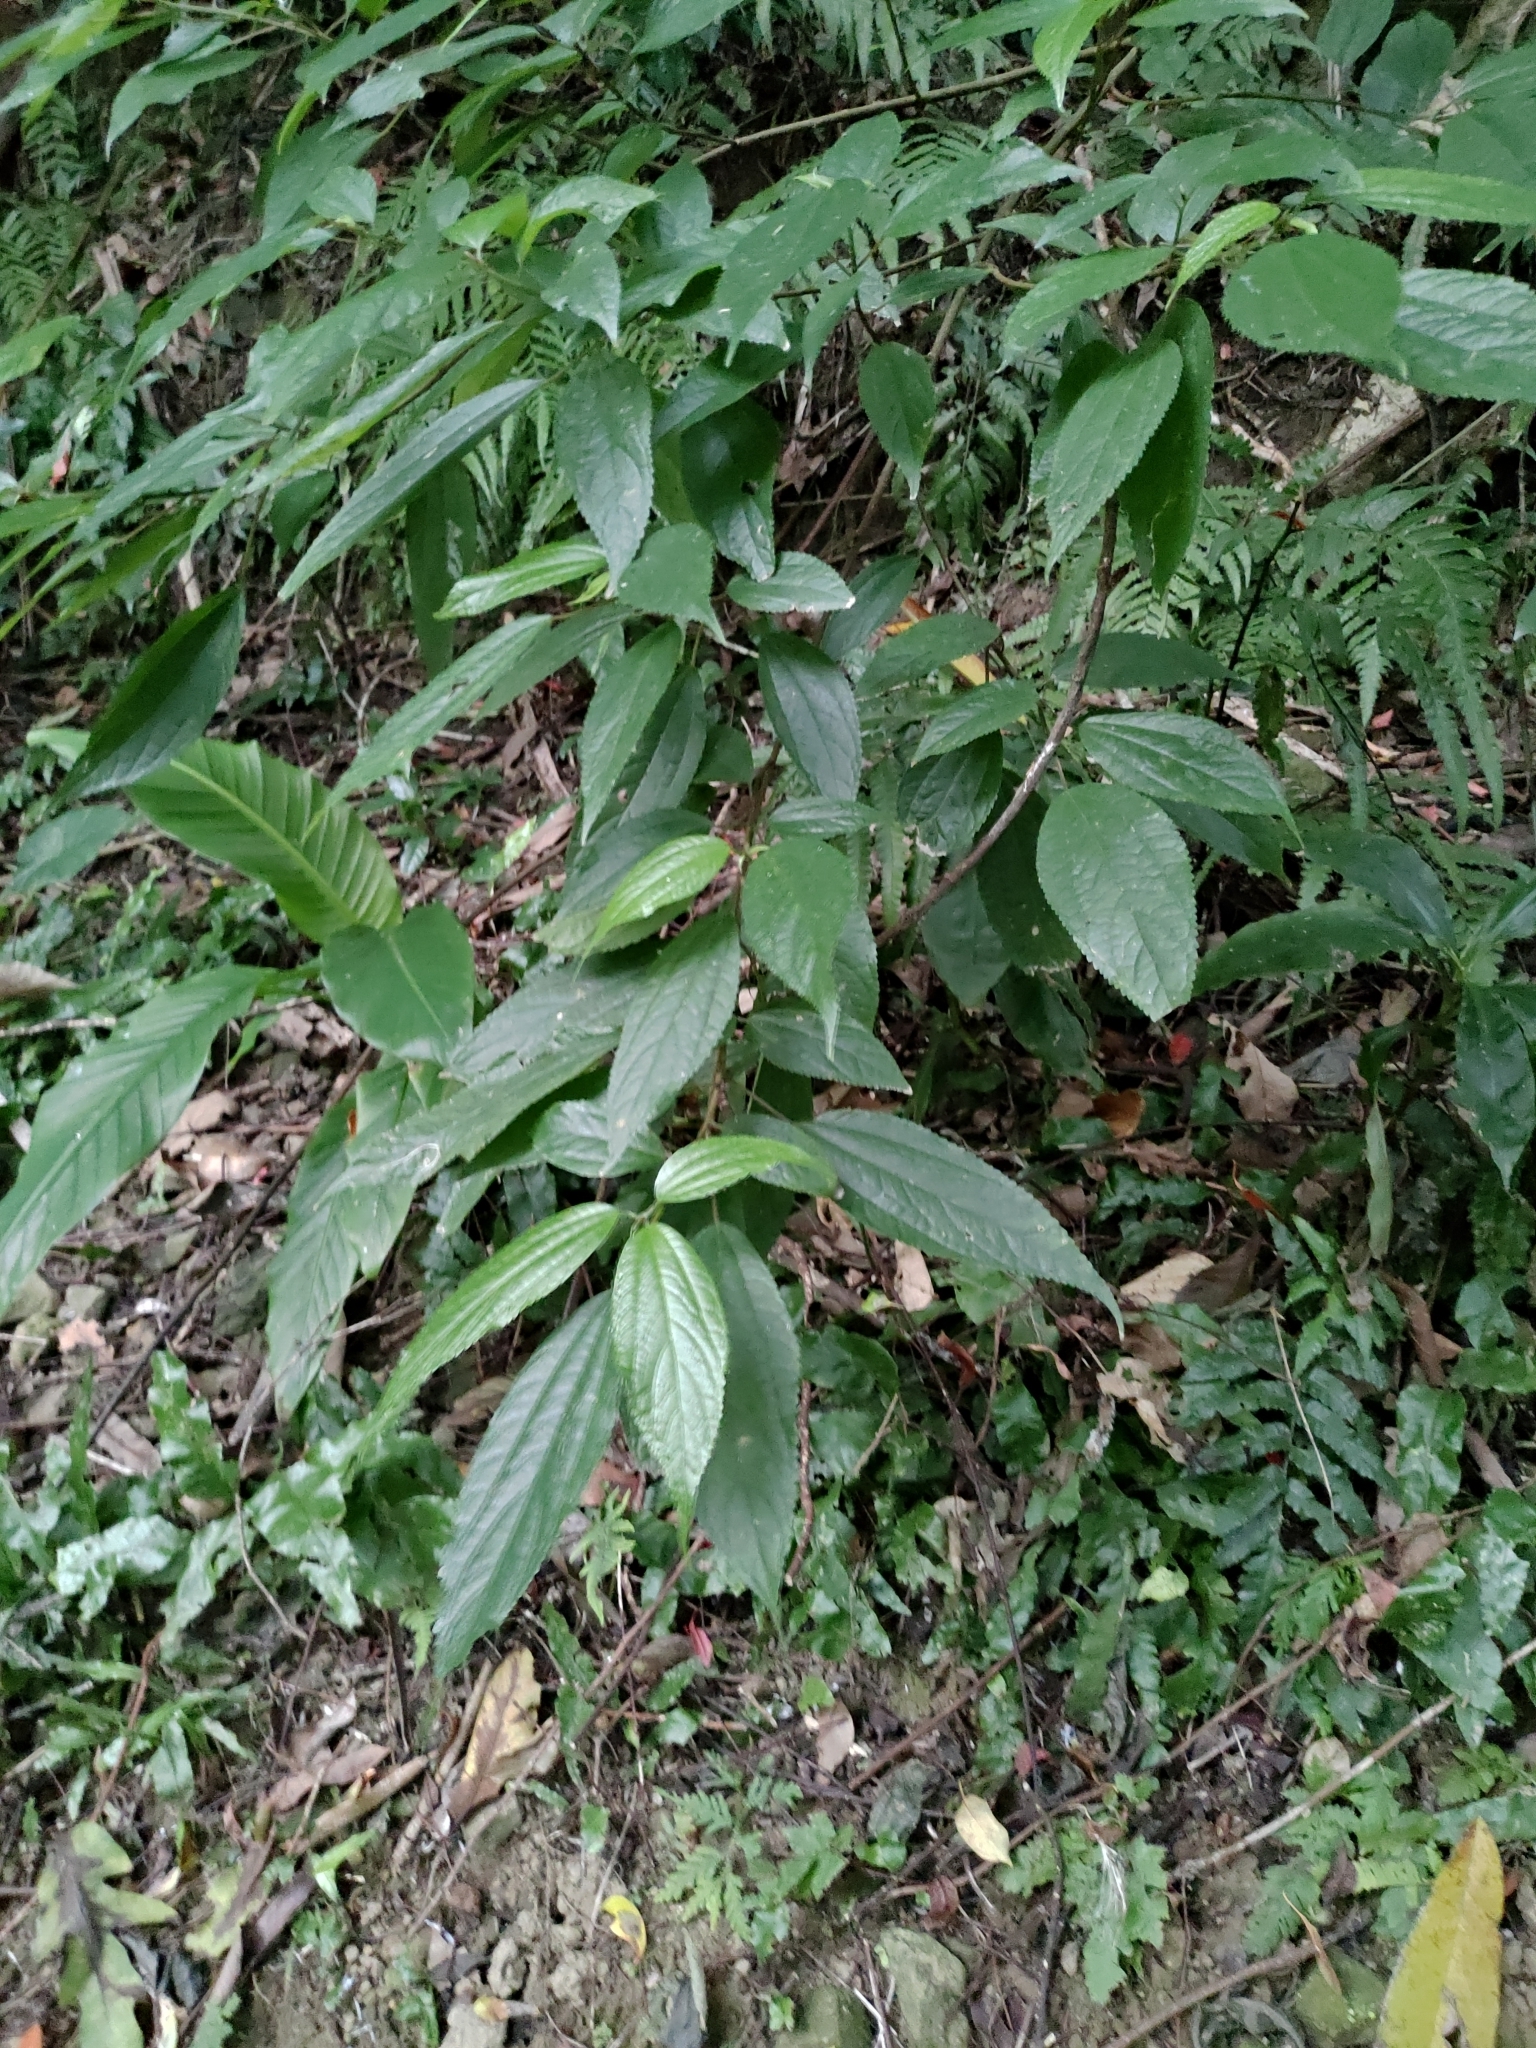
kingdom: Plantae
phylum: Tracheophyta
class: Magnoliopsida
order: Rosales
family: Urticaceae
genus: Oreocnide
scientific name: Oreocnide pedunculata
